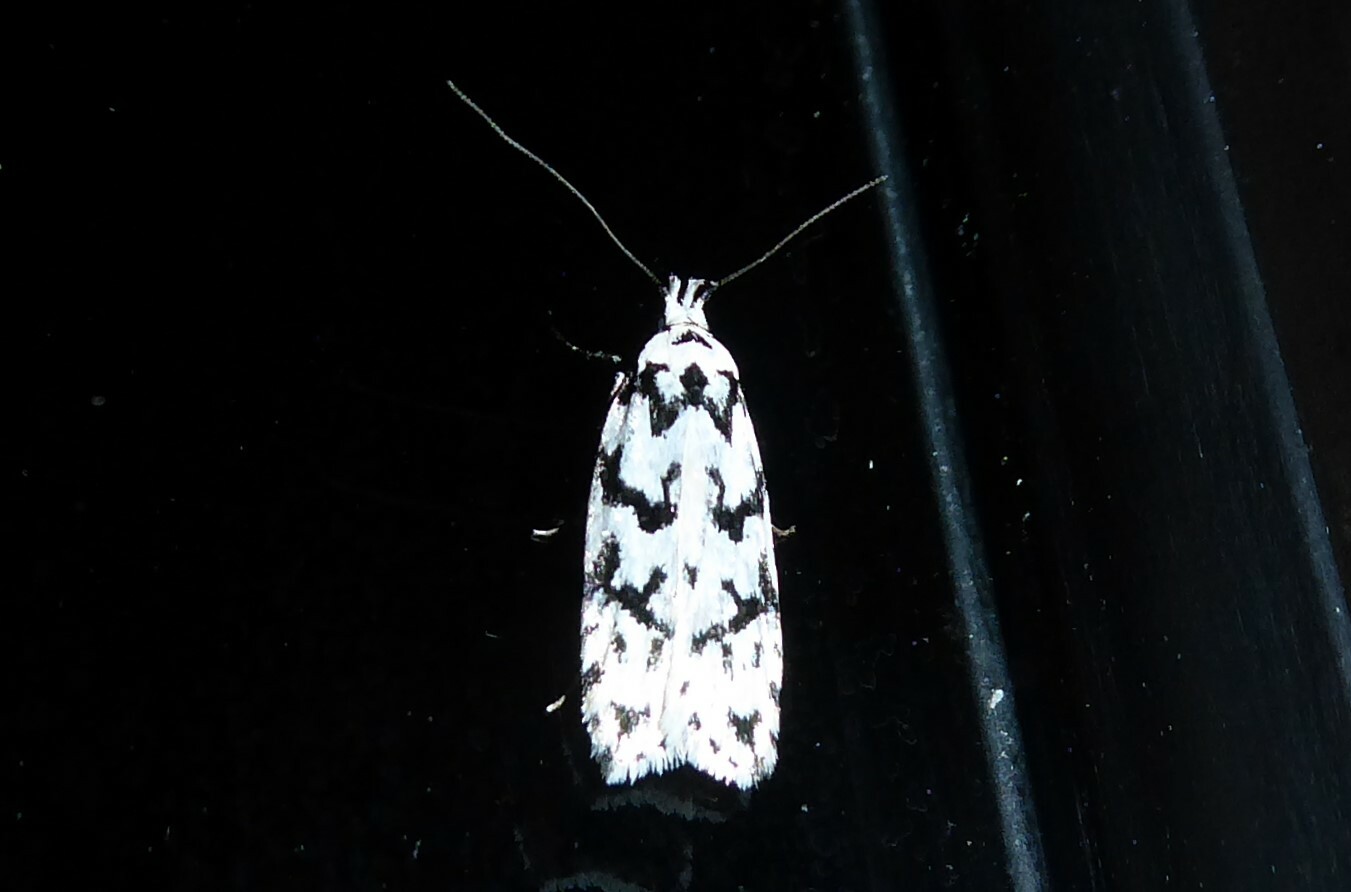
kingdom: Animalia
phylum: Arthropoda
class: Insecta
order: Lepidoptera
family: Oecophoridae
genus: Izatha
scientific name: Izatha katadiktya
